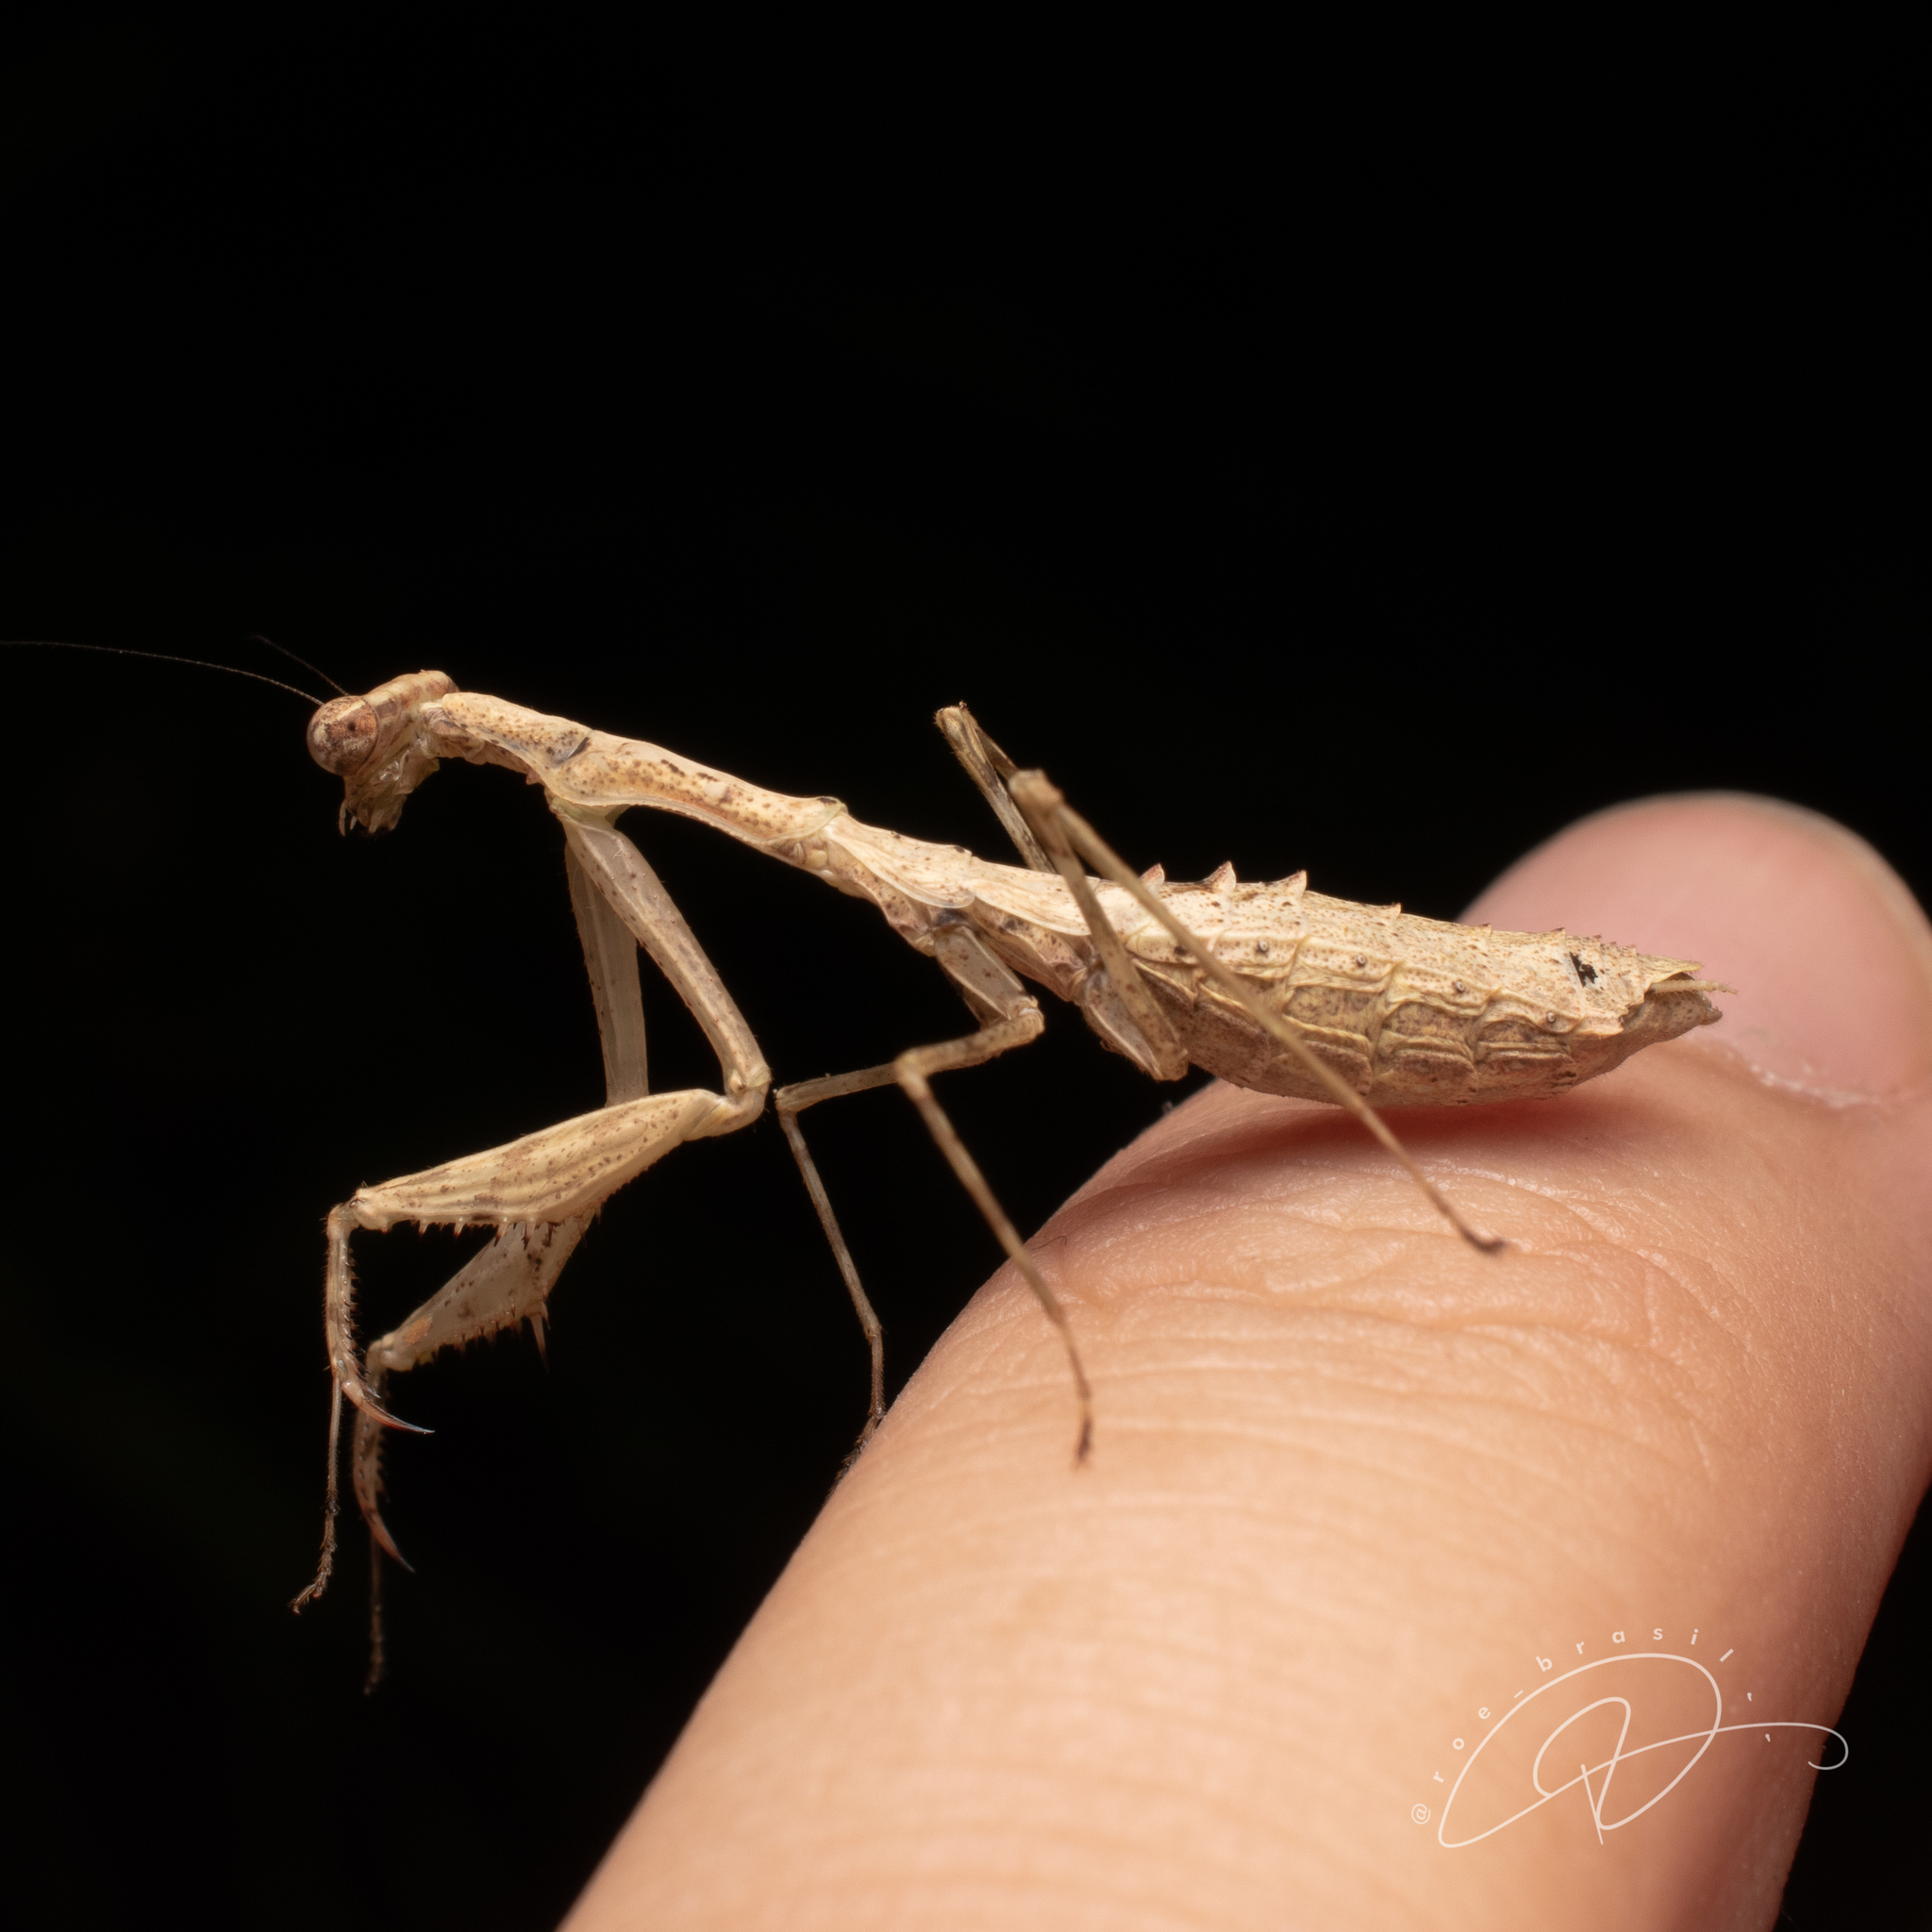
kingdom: Animalia
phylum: Arthropoda
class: Insecta
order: Mantodea
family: Thespidae
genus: Chloromiopteryx
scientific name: Chloromiopteryx mirim
